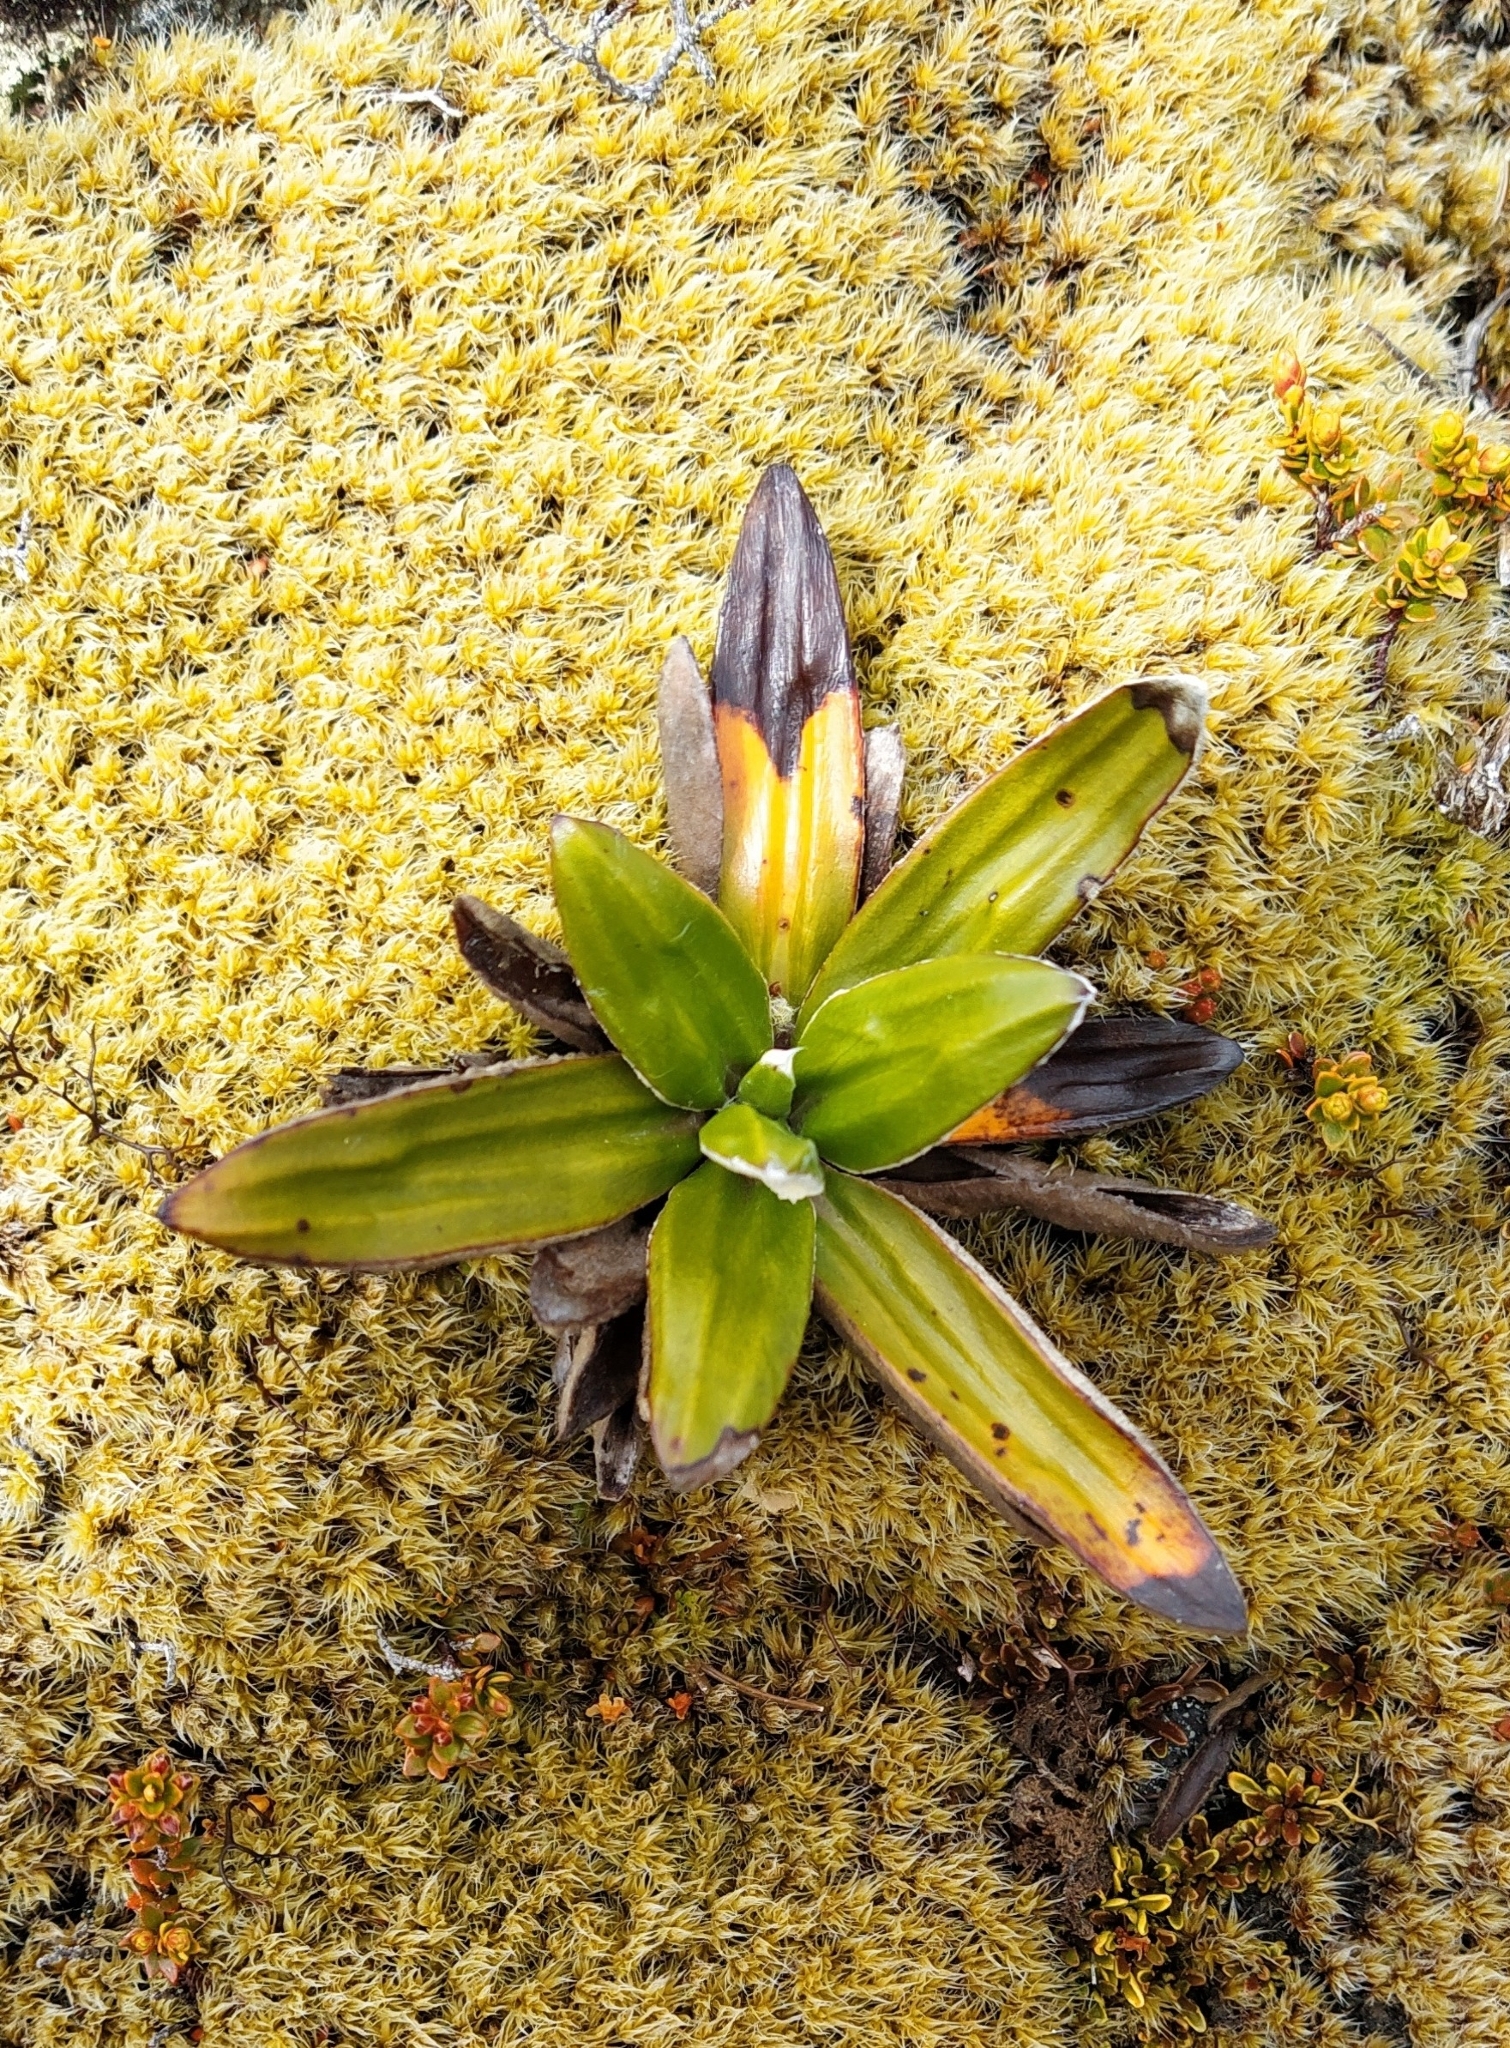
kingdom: Plantae
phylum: Tracheophyta
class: Magnoliopsida
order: Asterales
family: Asteraceae
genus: Celmisia
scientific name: Celmisia spectabilis
